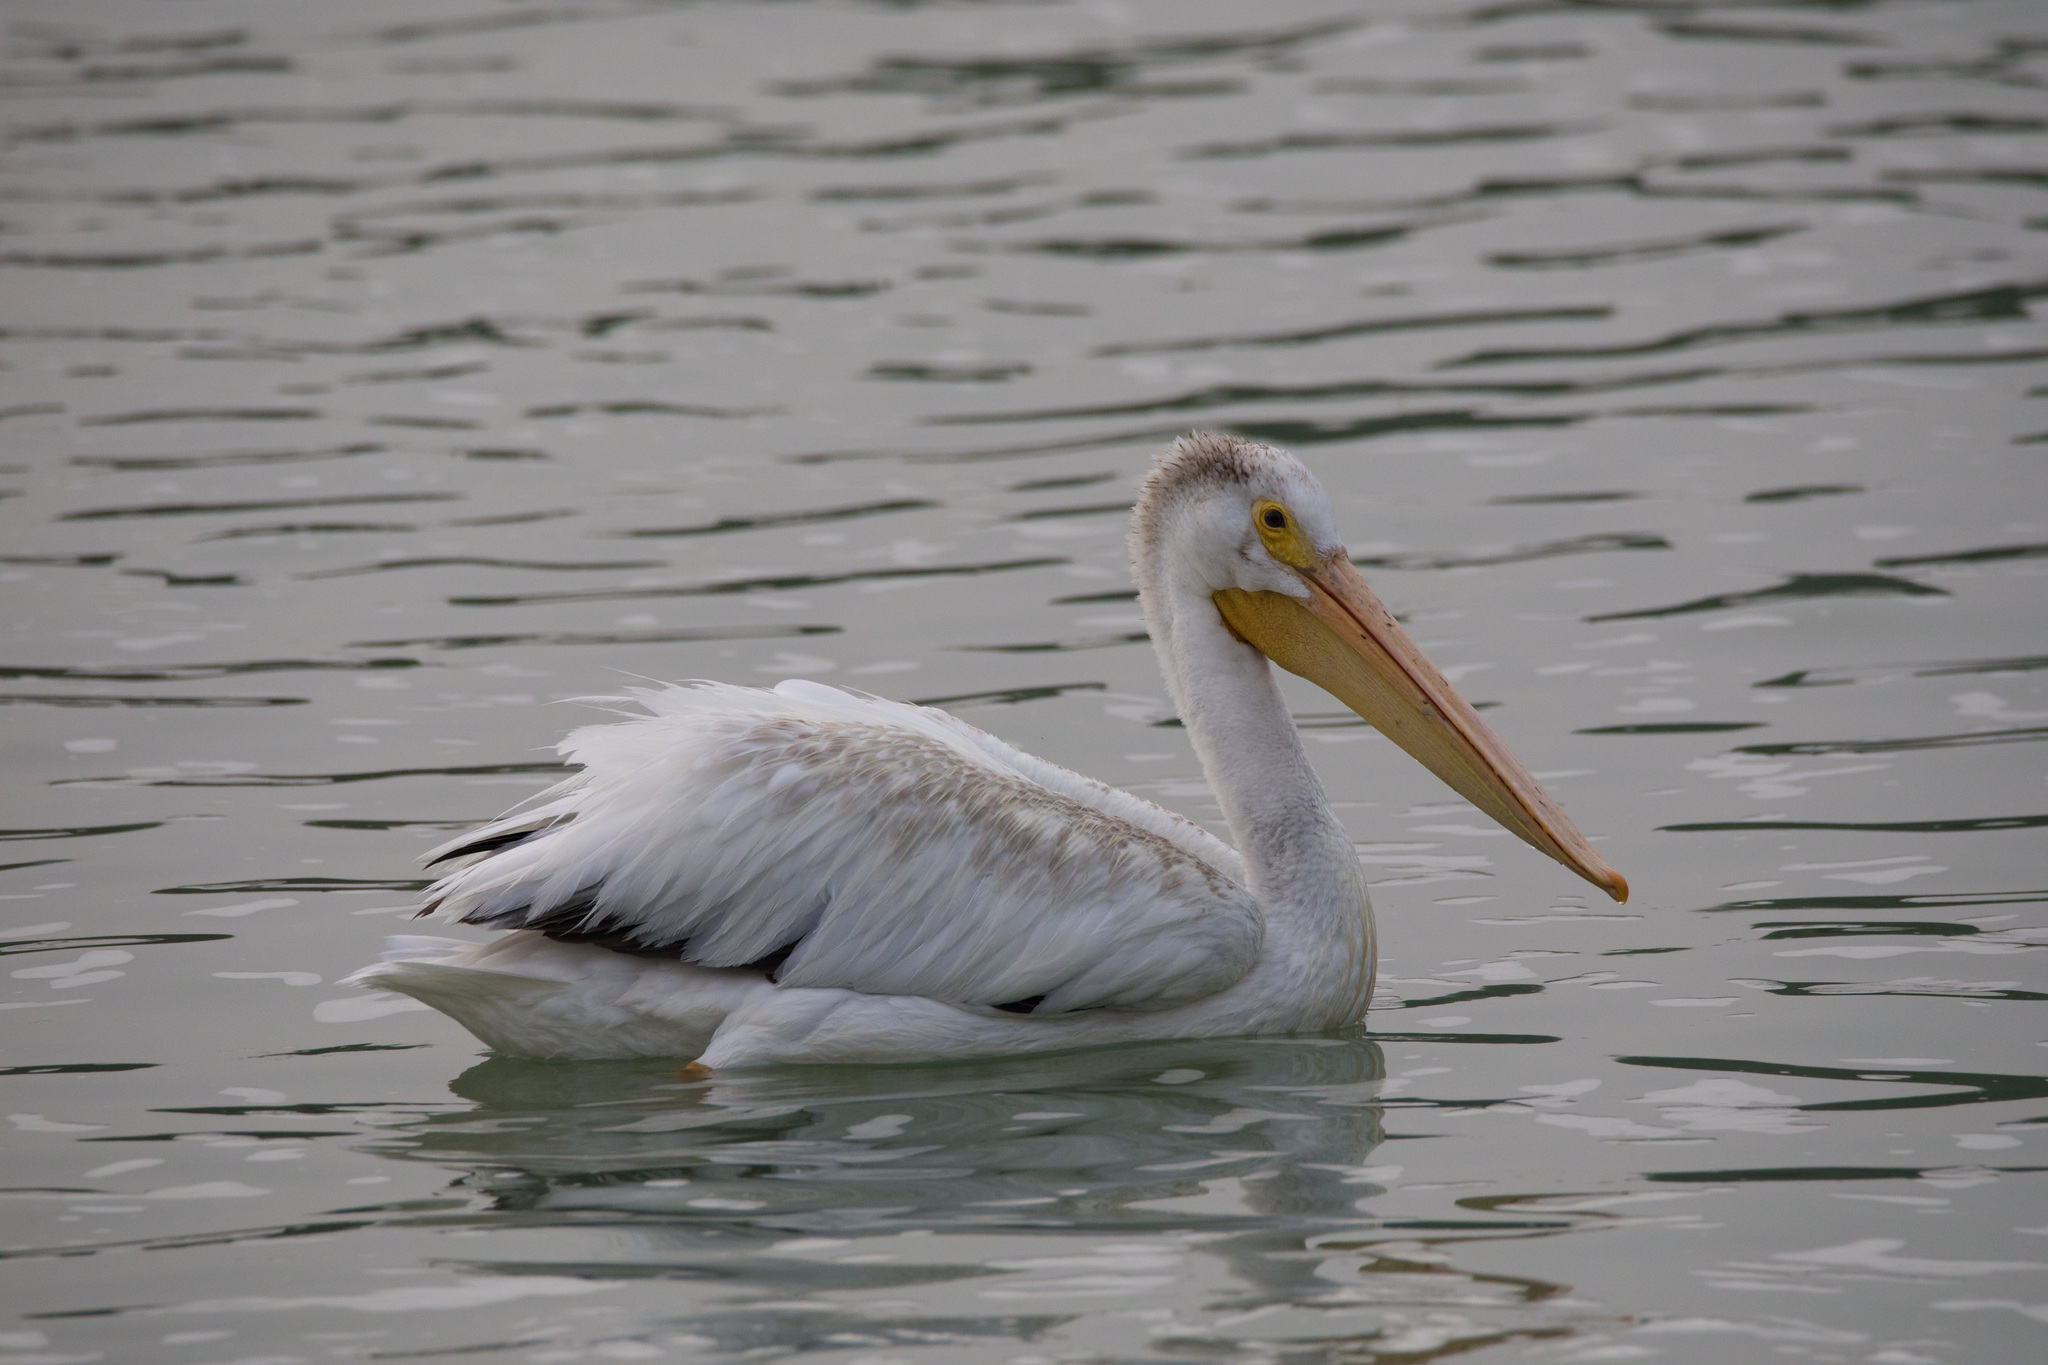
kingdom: Animalia
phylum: Chordata
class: Aves
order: Pelecaniformes
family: Pelecanidae
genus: Pelecanus
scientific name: Pelecanus erythrorhynchos
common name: American white pelican
